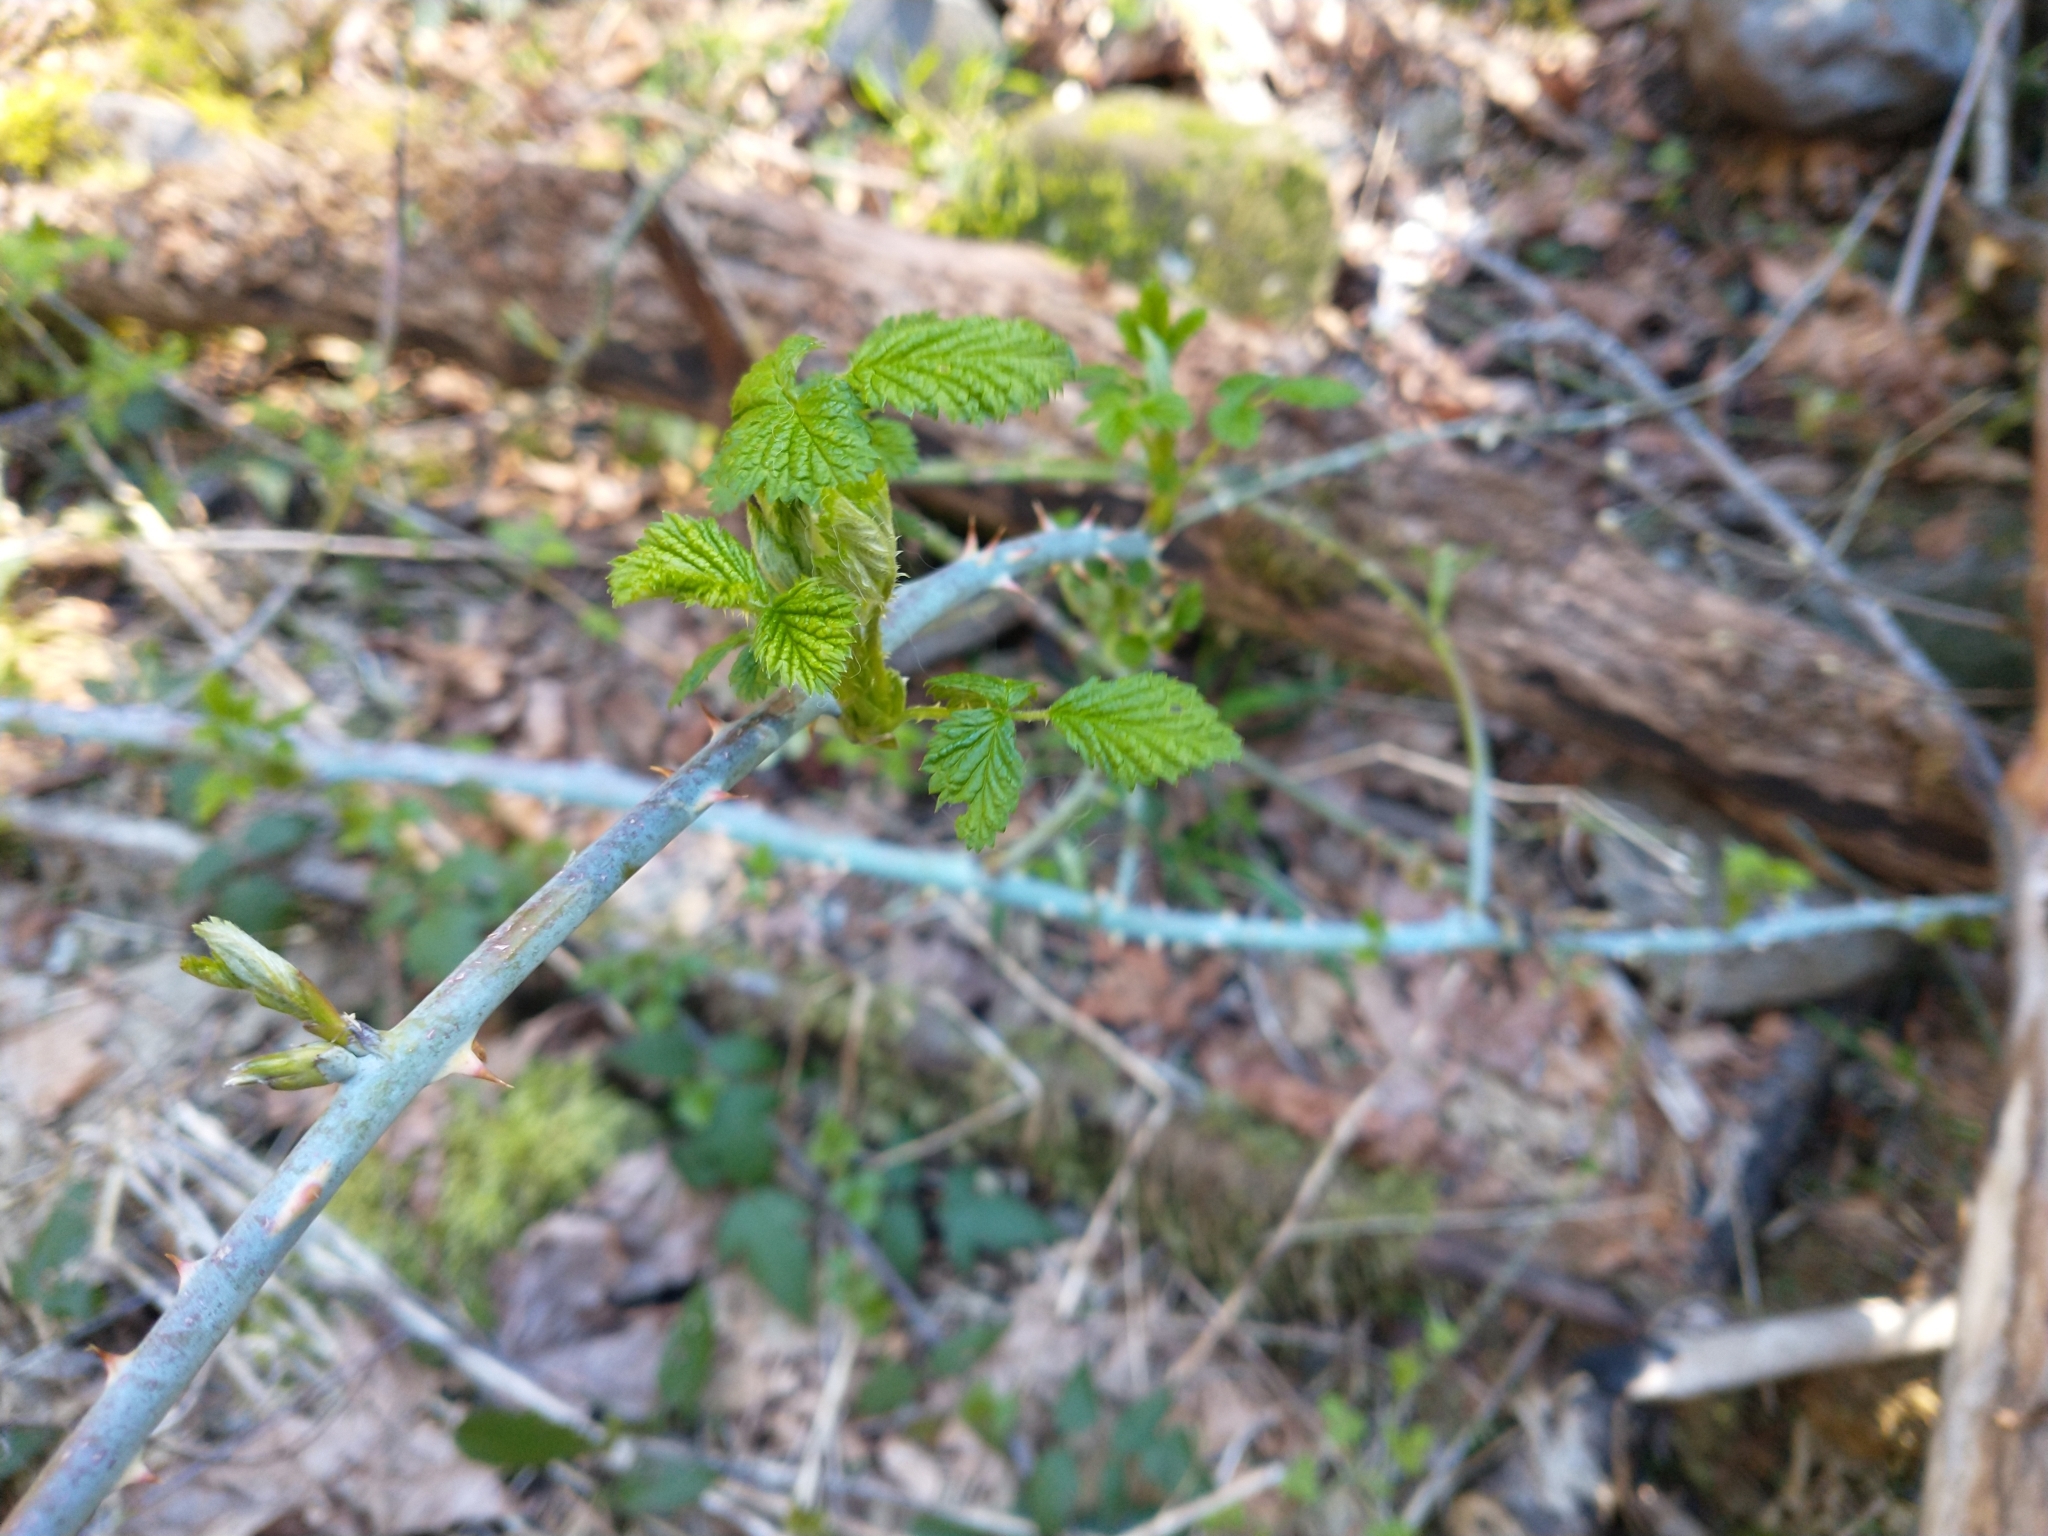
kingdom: Plantae
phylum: Tracheophyta
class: Magnoliopsida
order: Rosales
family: Rosaceae
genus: Rubus
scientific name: Rubus leucodermis
